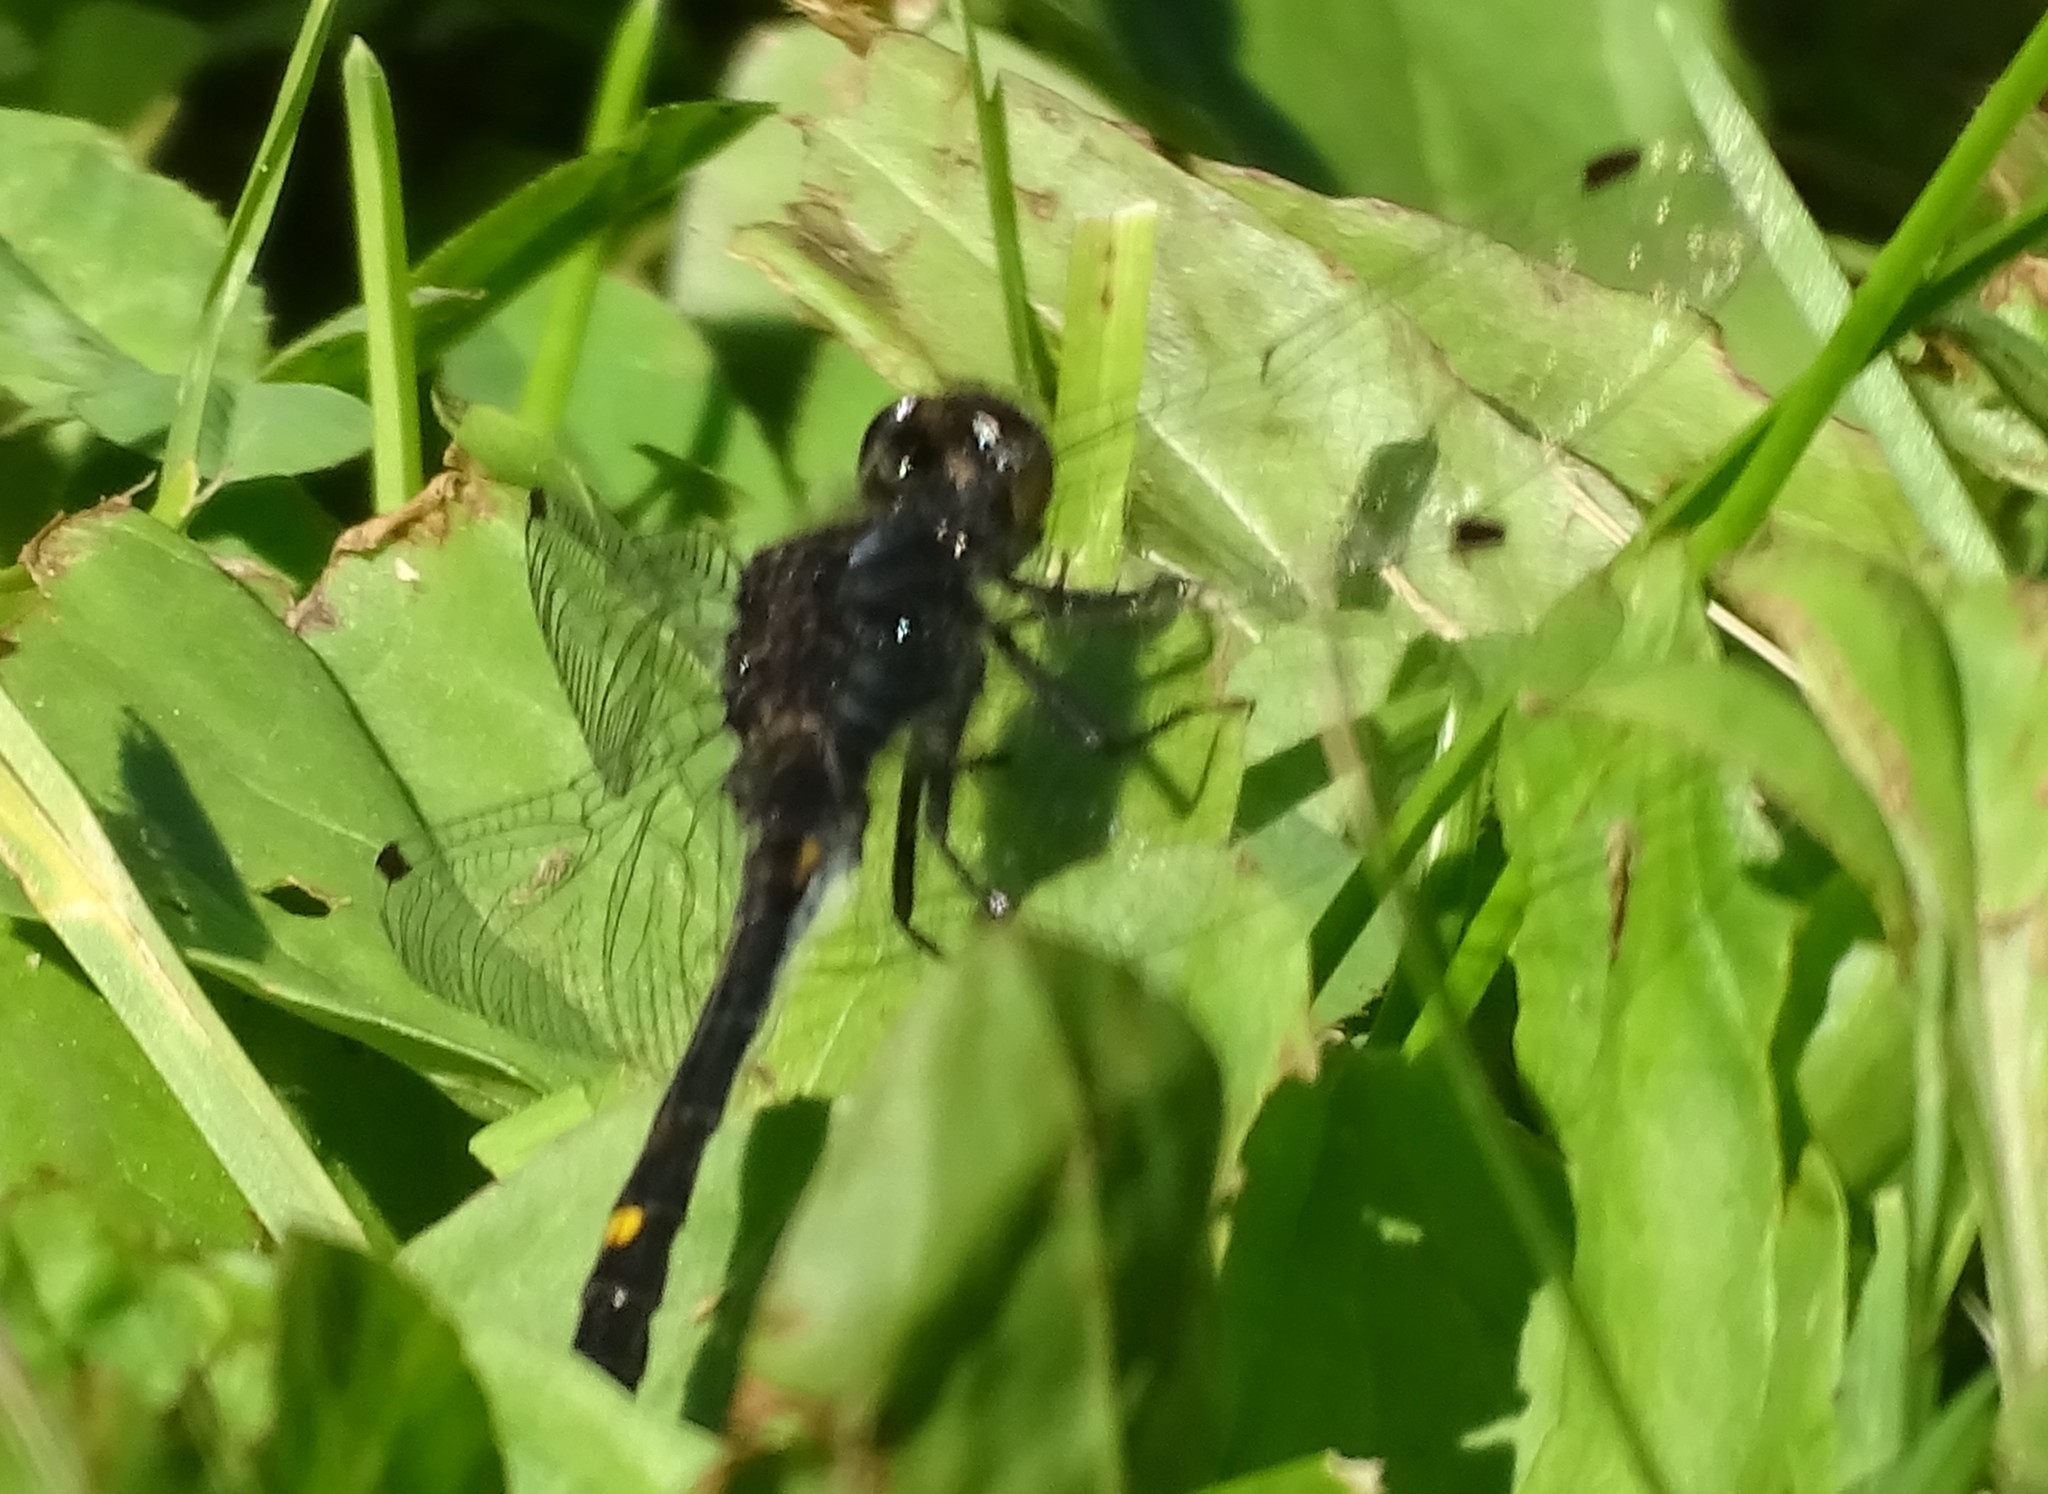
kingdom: Animalia
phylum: Arthropoda
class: Insecta
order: Odonata
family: Libellulidae
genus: Leucorrhinia
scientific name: Leucorrhinia intacta
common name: Dot-tailed whiteface
